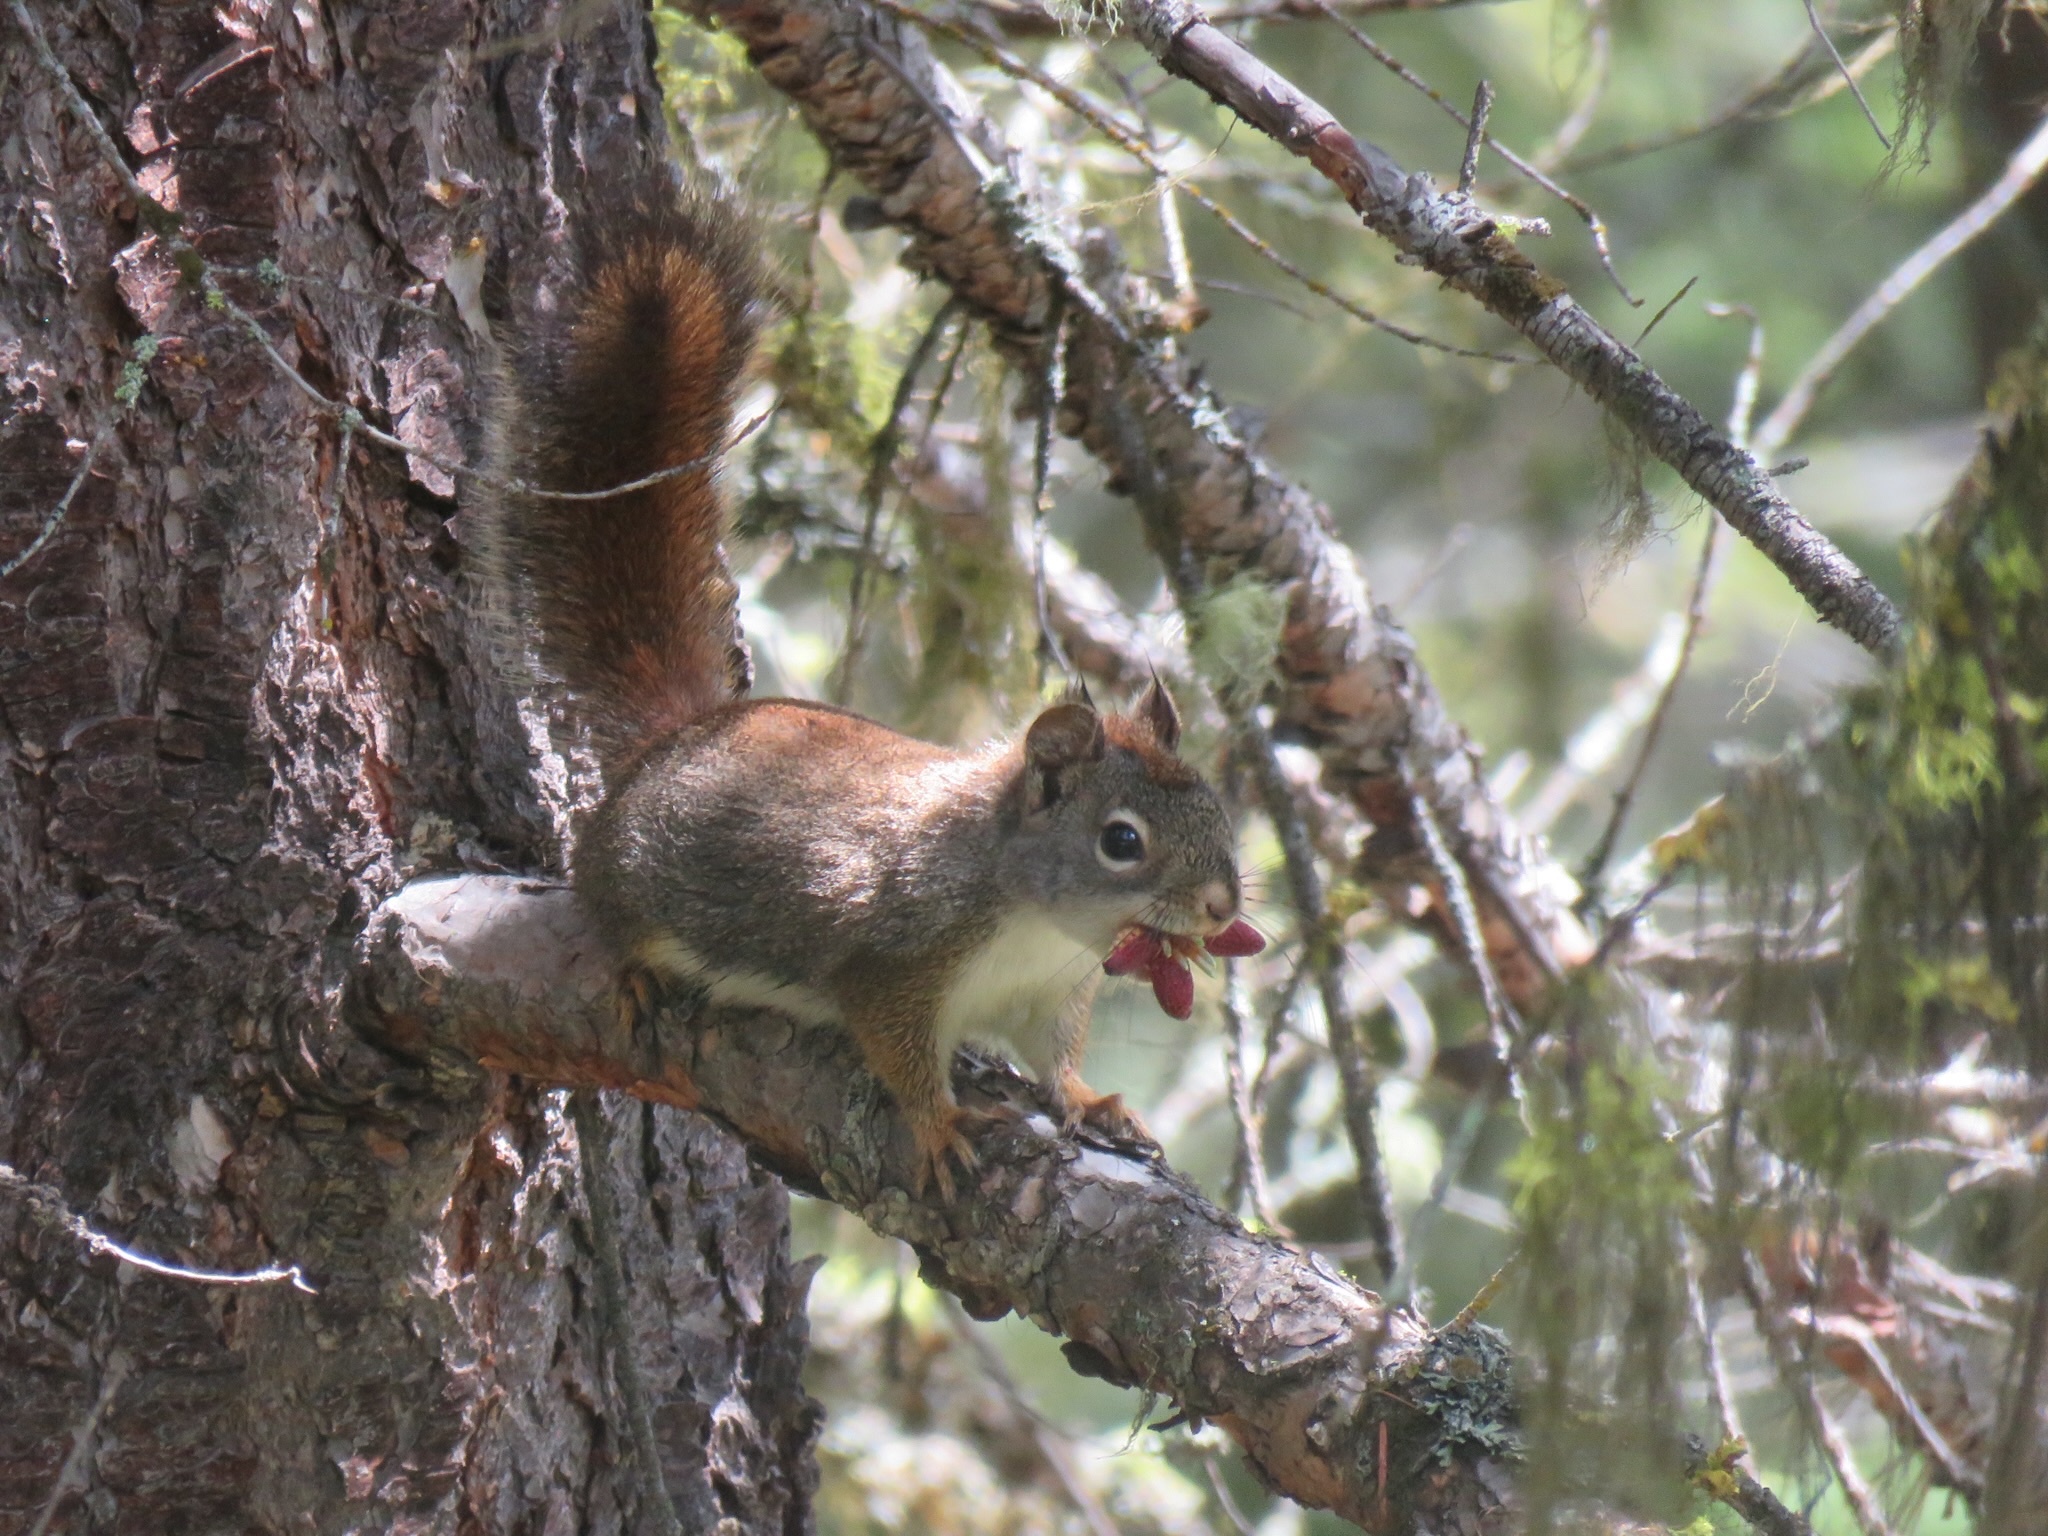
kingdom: Animalia
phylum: Chordata
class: Mammalia
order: Rodentia
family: Sciuridae
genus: Tamiasciurus
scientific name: Tamiasciurus hudsonicus
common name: Red squirrel
